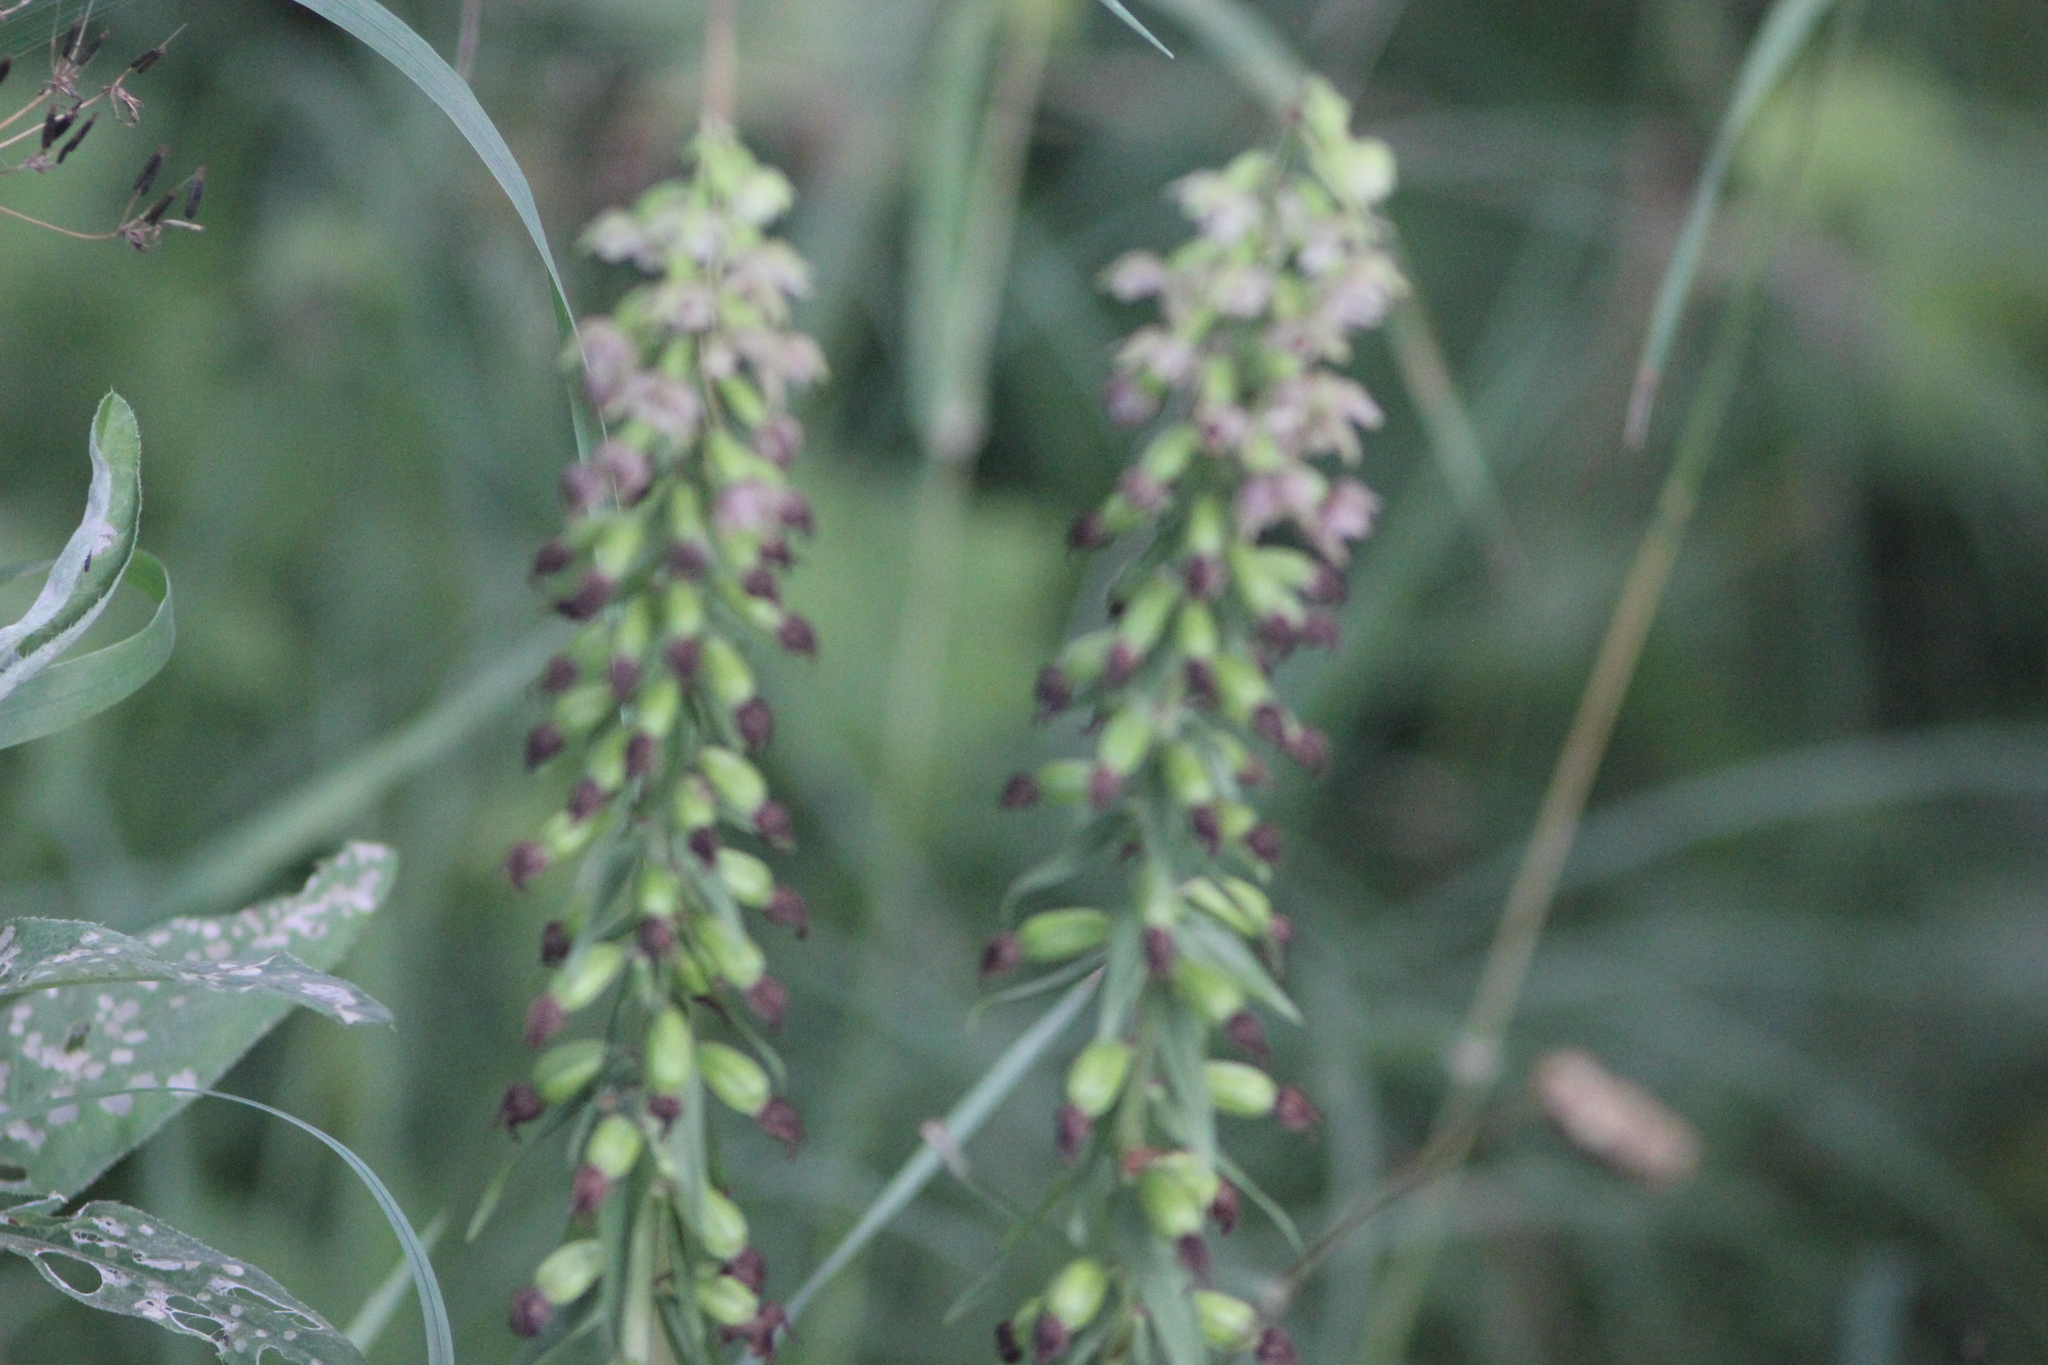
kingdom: Plantae
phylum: Tracheophyta
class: Liliopsida
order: Asparagales
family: Orchidaceae
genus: Epipactis
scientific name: Epipactis helleborine
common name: Broad-leaved helleborine
